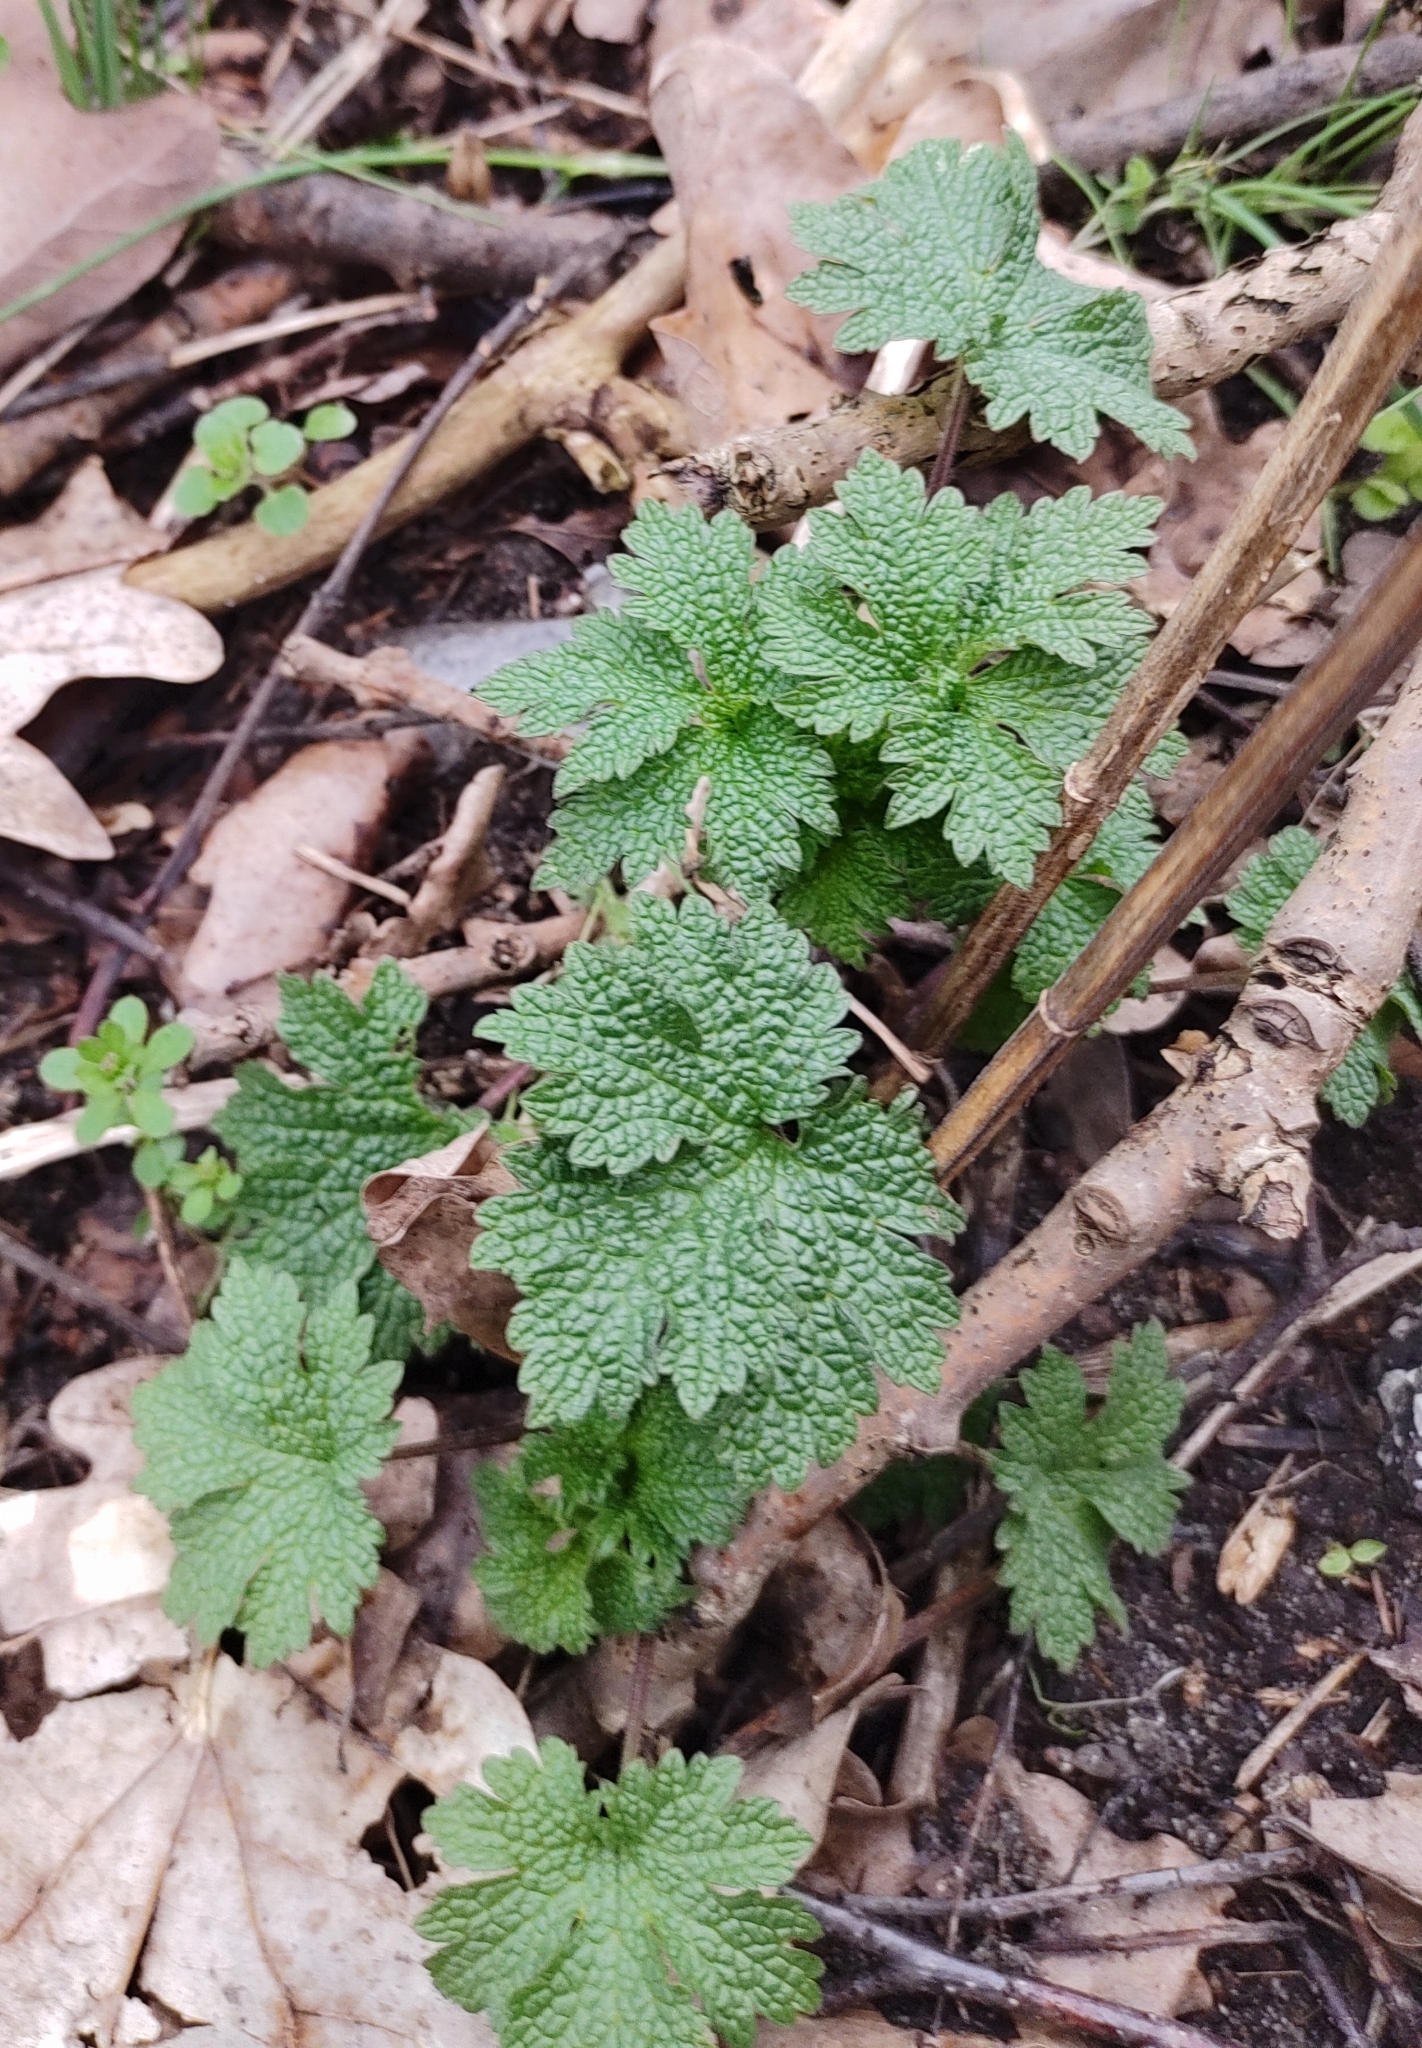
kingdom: Plantae
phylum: Tracheophyta
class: Magnoliopsida
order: Lamiales
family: Lamiaceae
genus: Leonurus
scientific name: Leonurus cardiaca
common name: Motherwort
